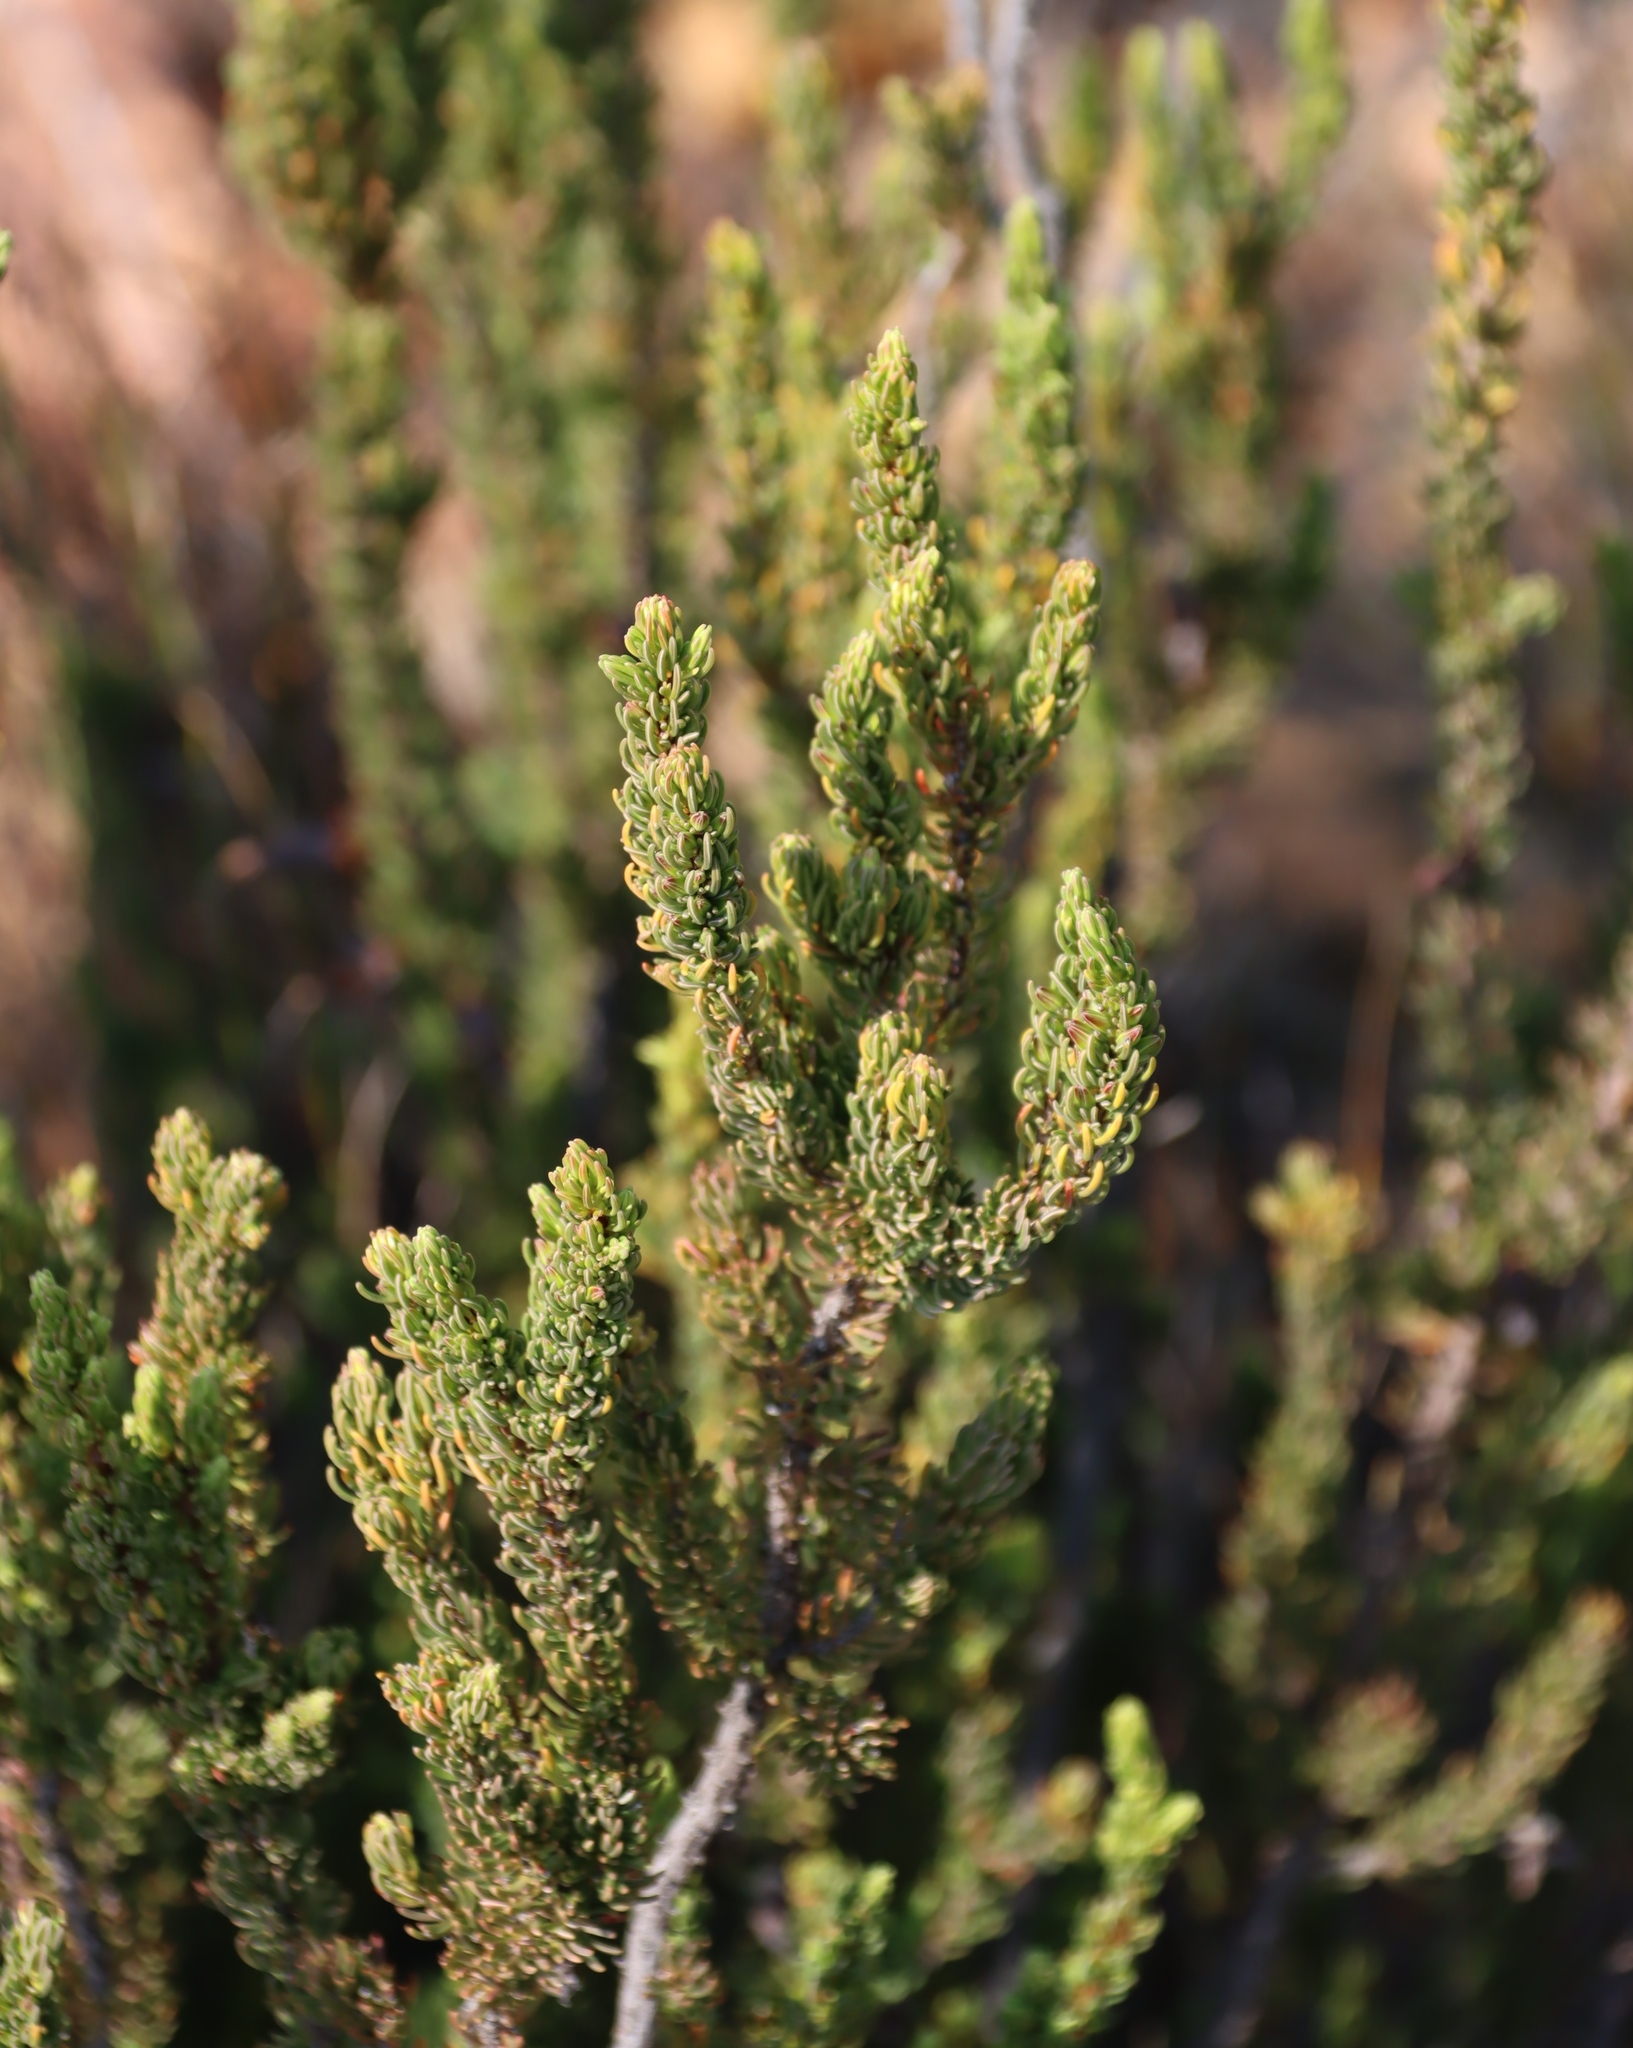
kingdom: Plantae
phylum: Tracheophyta
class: Magnoliopsida
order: Ericales
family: Ericaceae
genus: Erica
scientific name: Erica plukenetii
